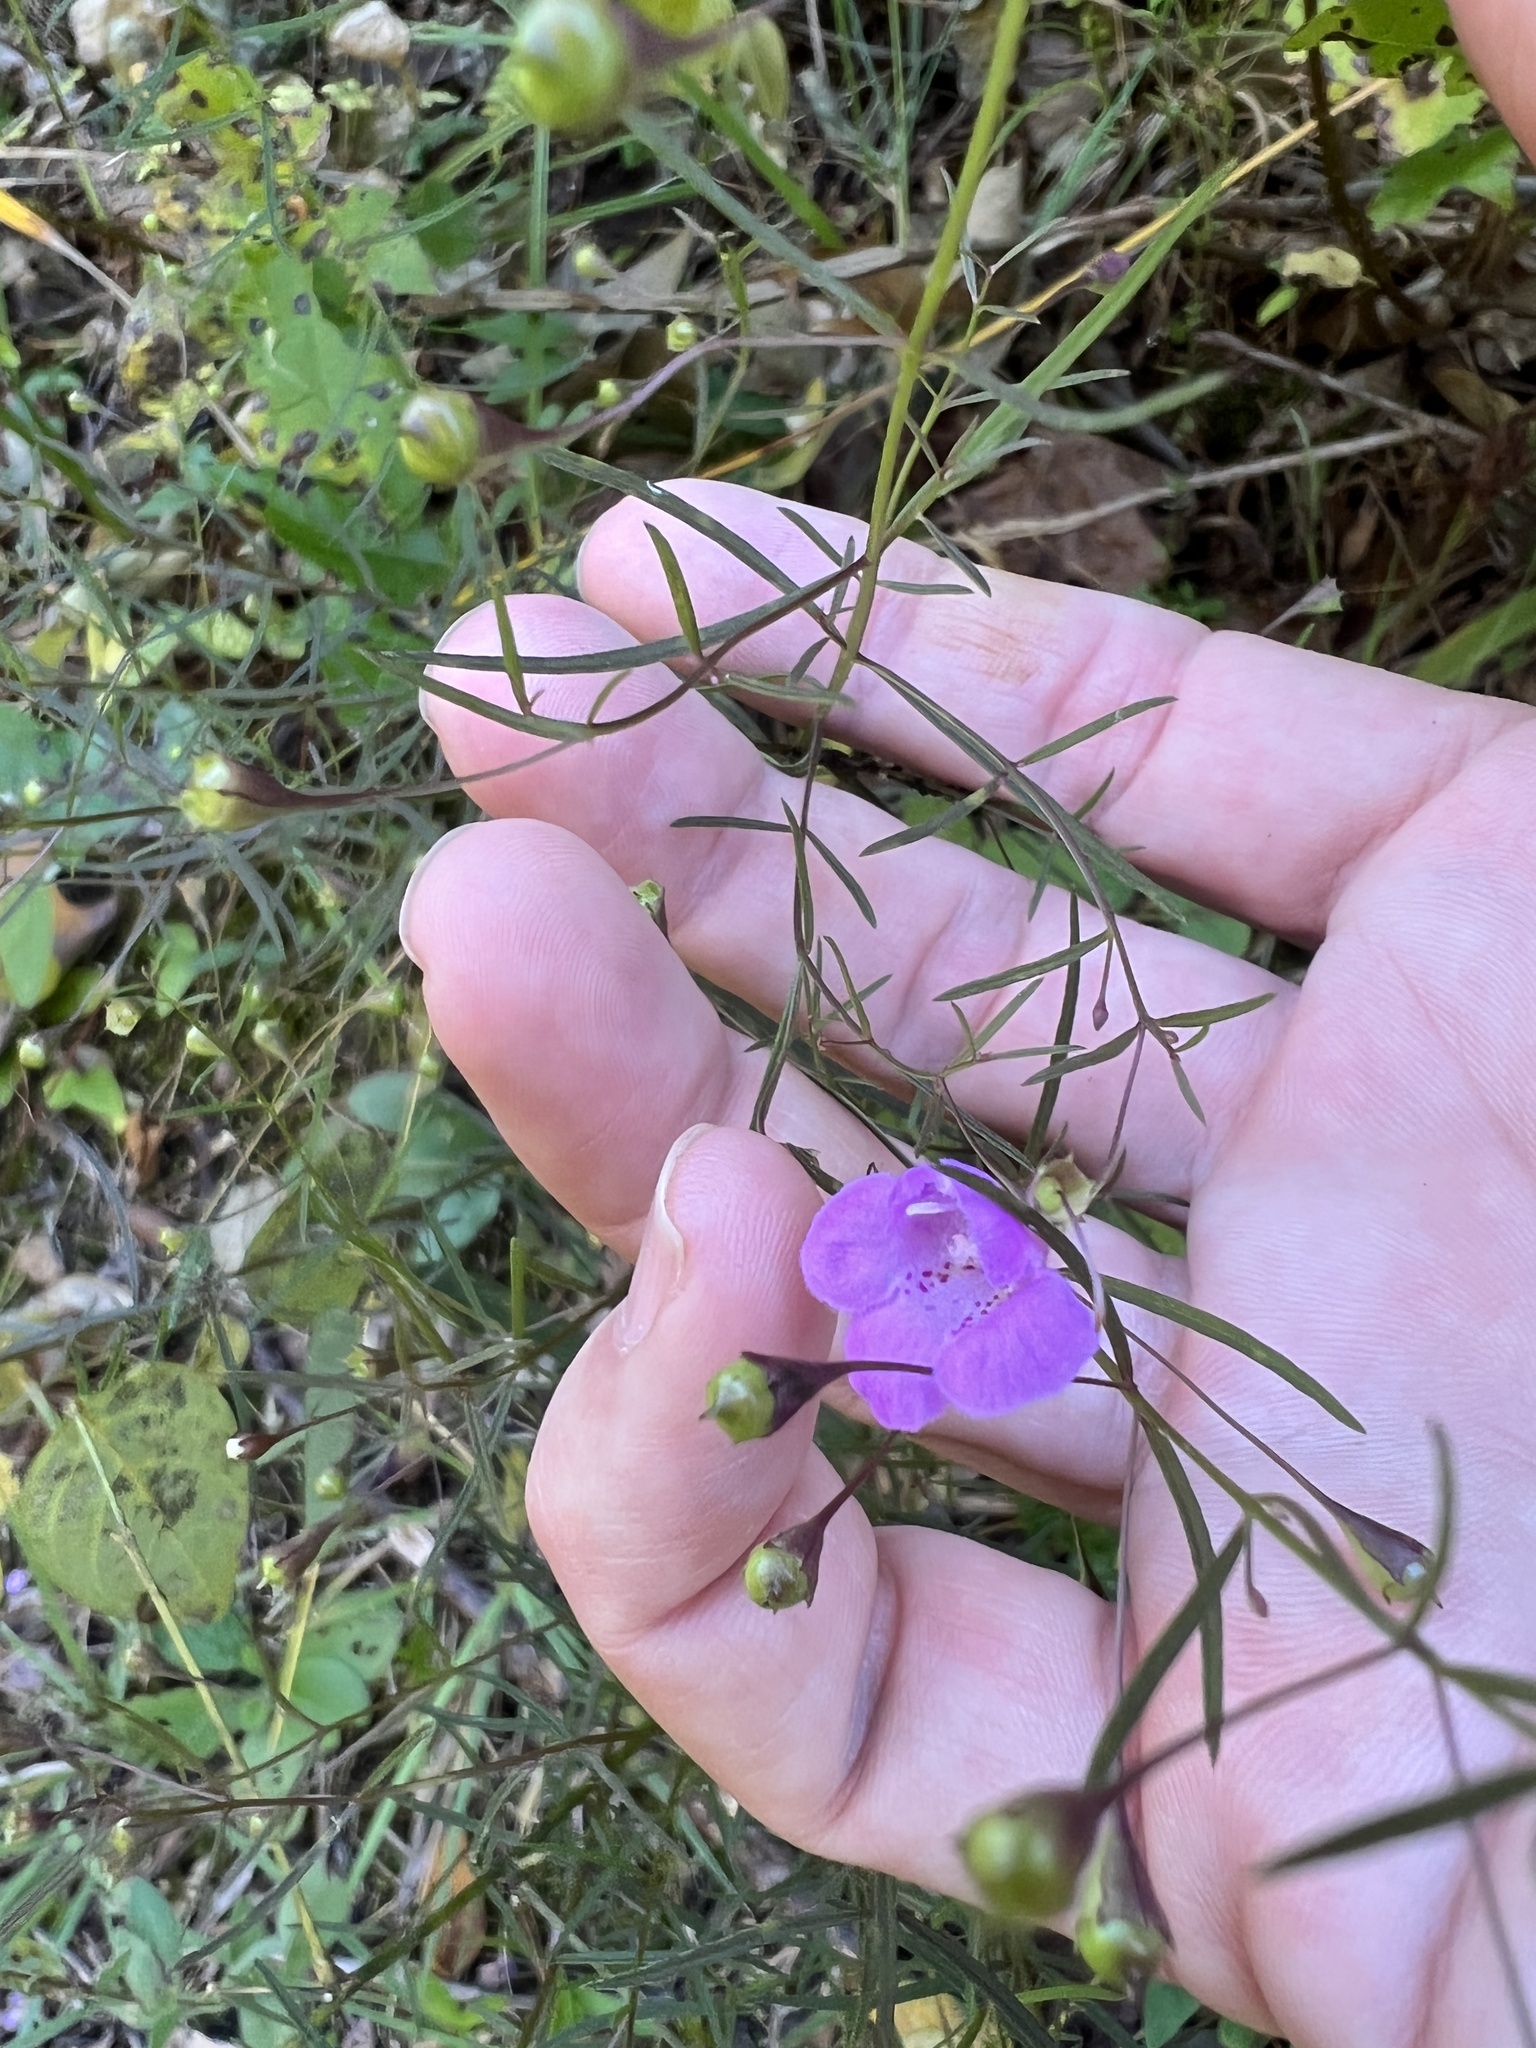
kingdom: Plantae
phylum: Tracheophyta
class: Magnoliopsida
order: Lamiales
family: Orobanchaceae
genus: Agalinis
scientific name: Agalinis tenuifolia
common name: Slender agalinis
